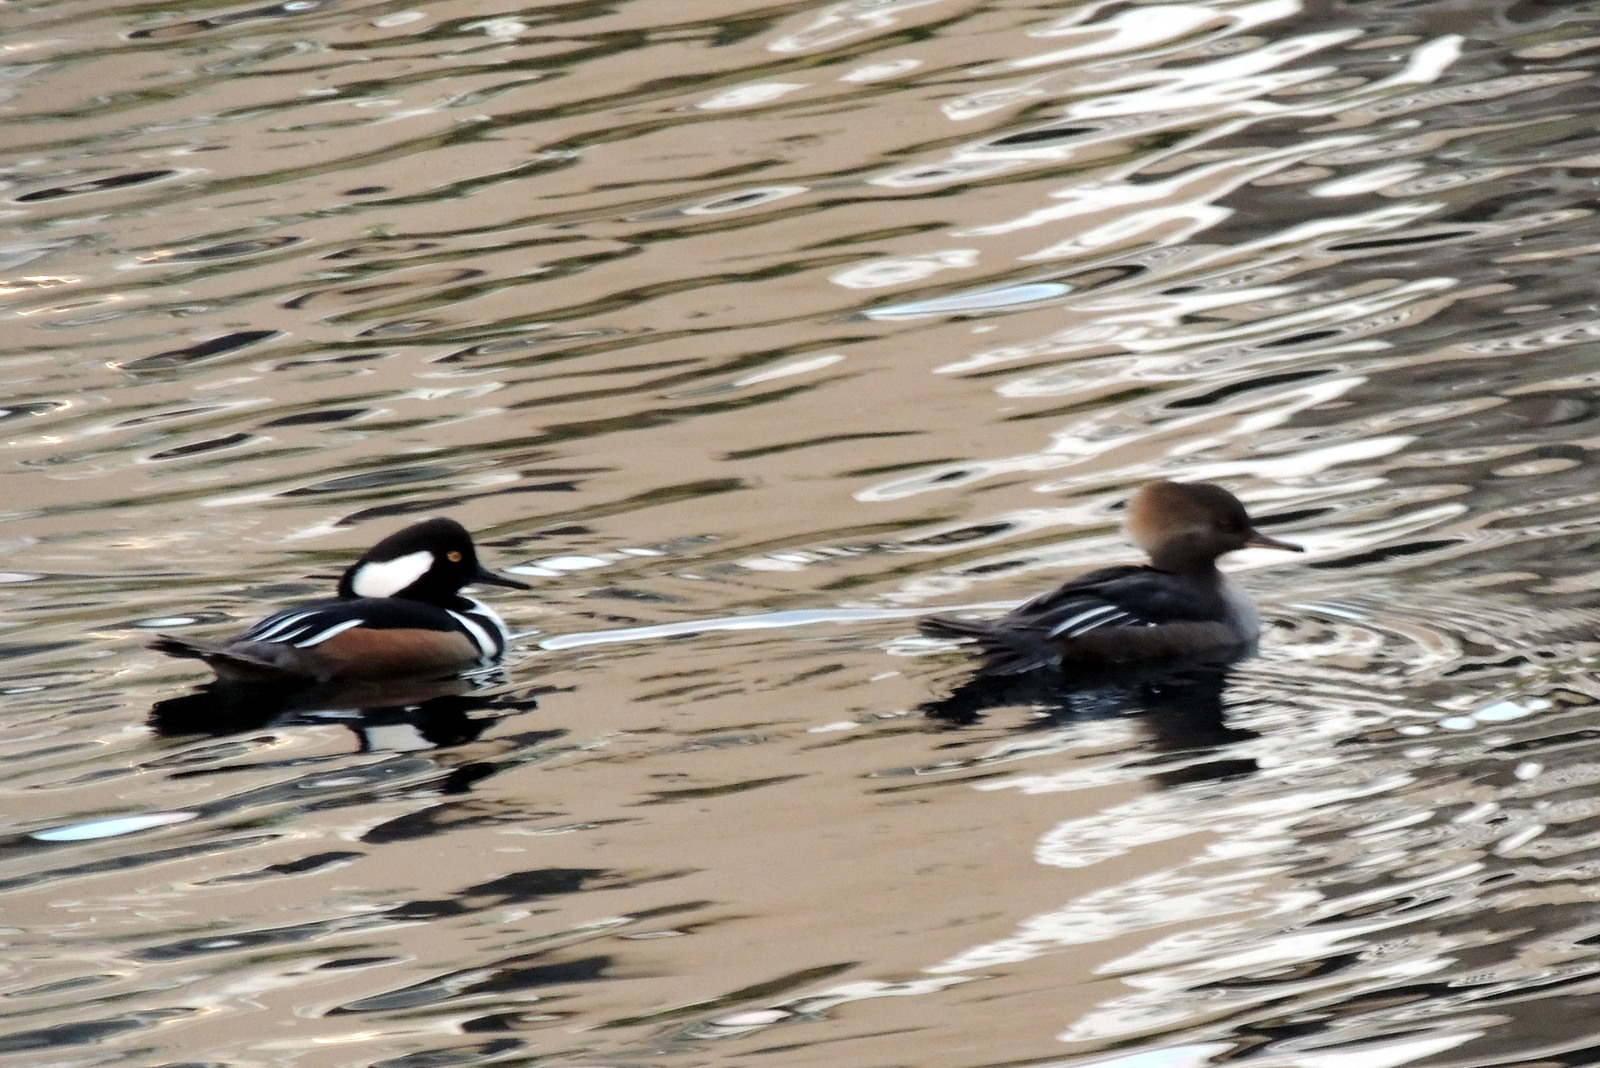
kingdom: Animalia
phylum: Chordata
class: Aves
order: Anseriformes
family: Anatidae
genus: Lophodytes
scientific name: Lophodytes cucullatus
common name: Hooded merganser
